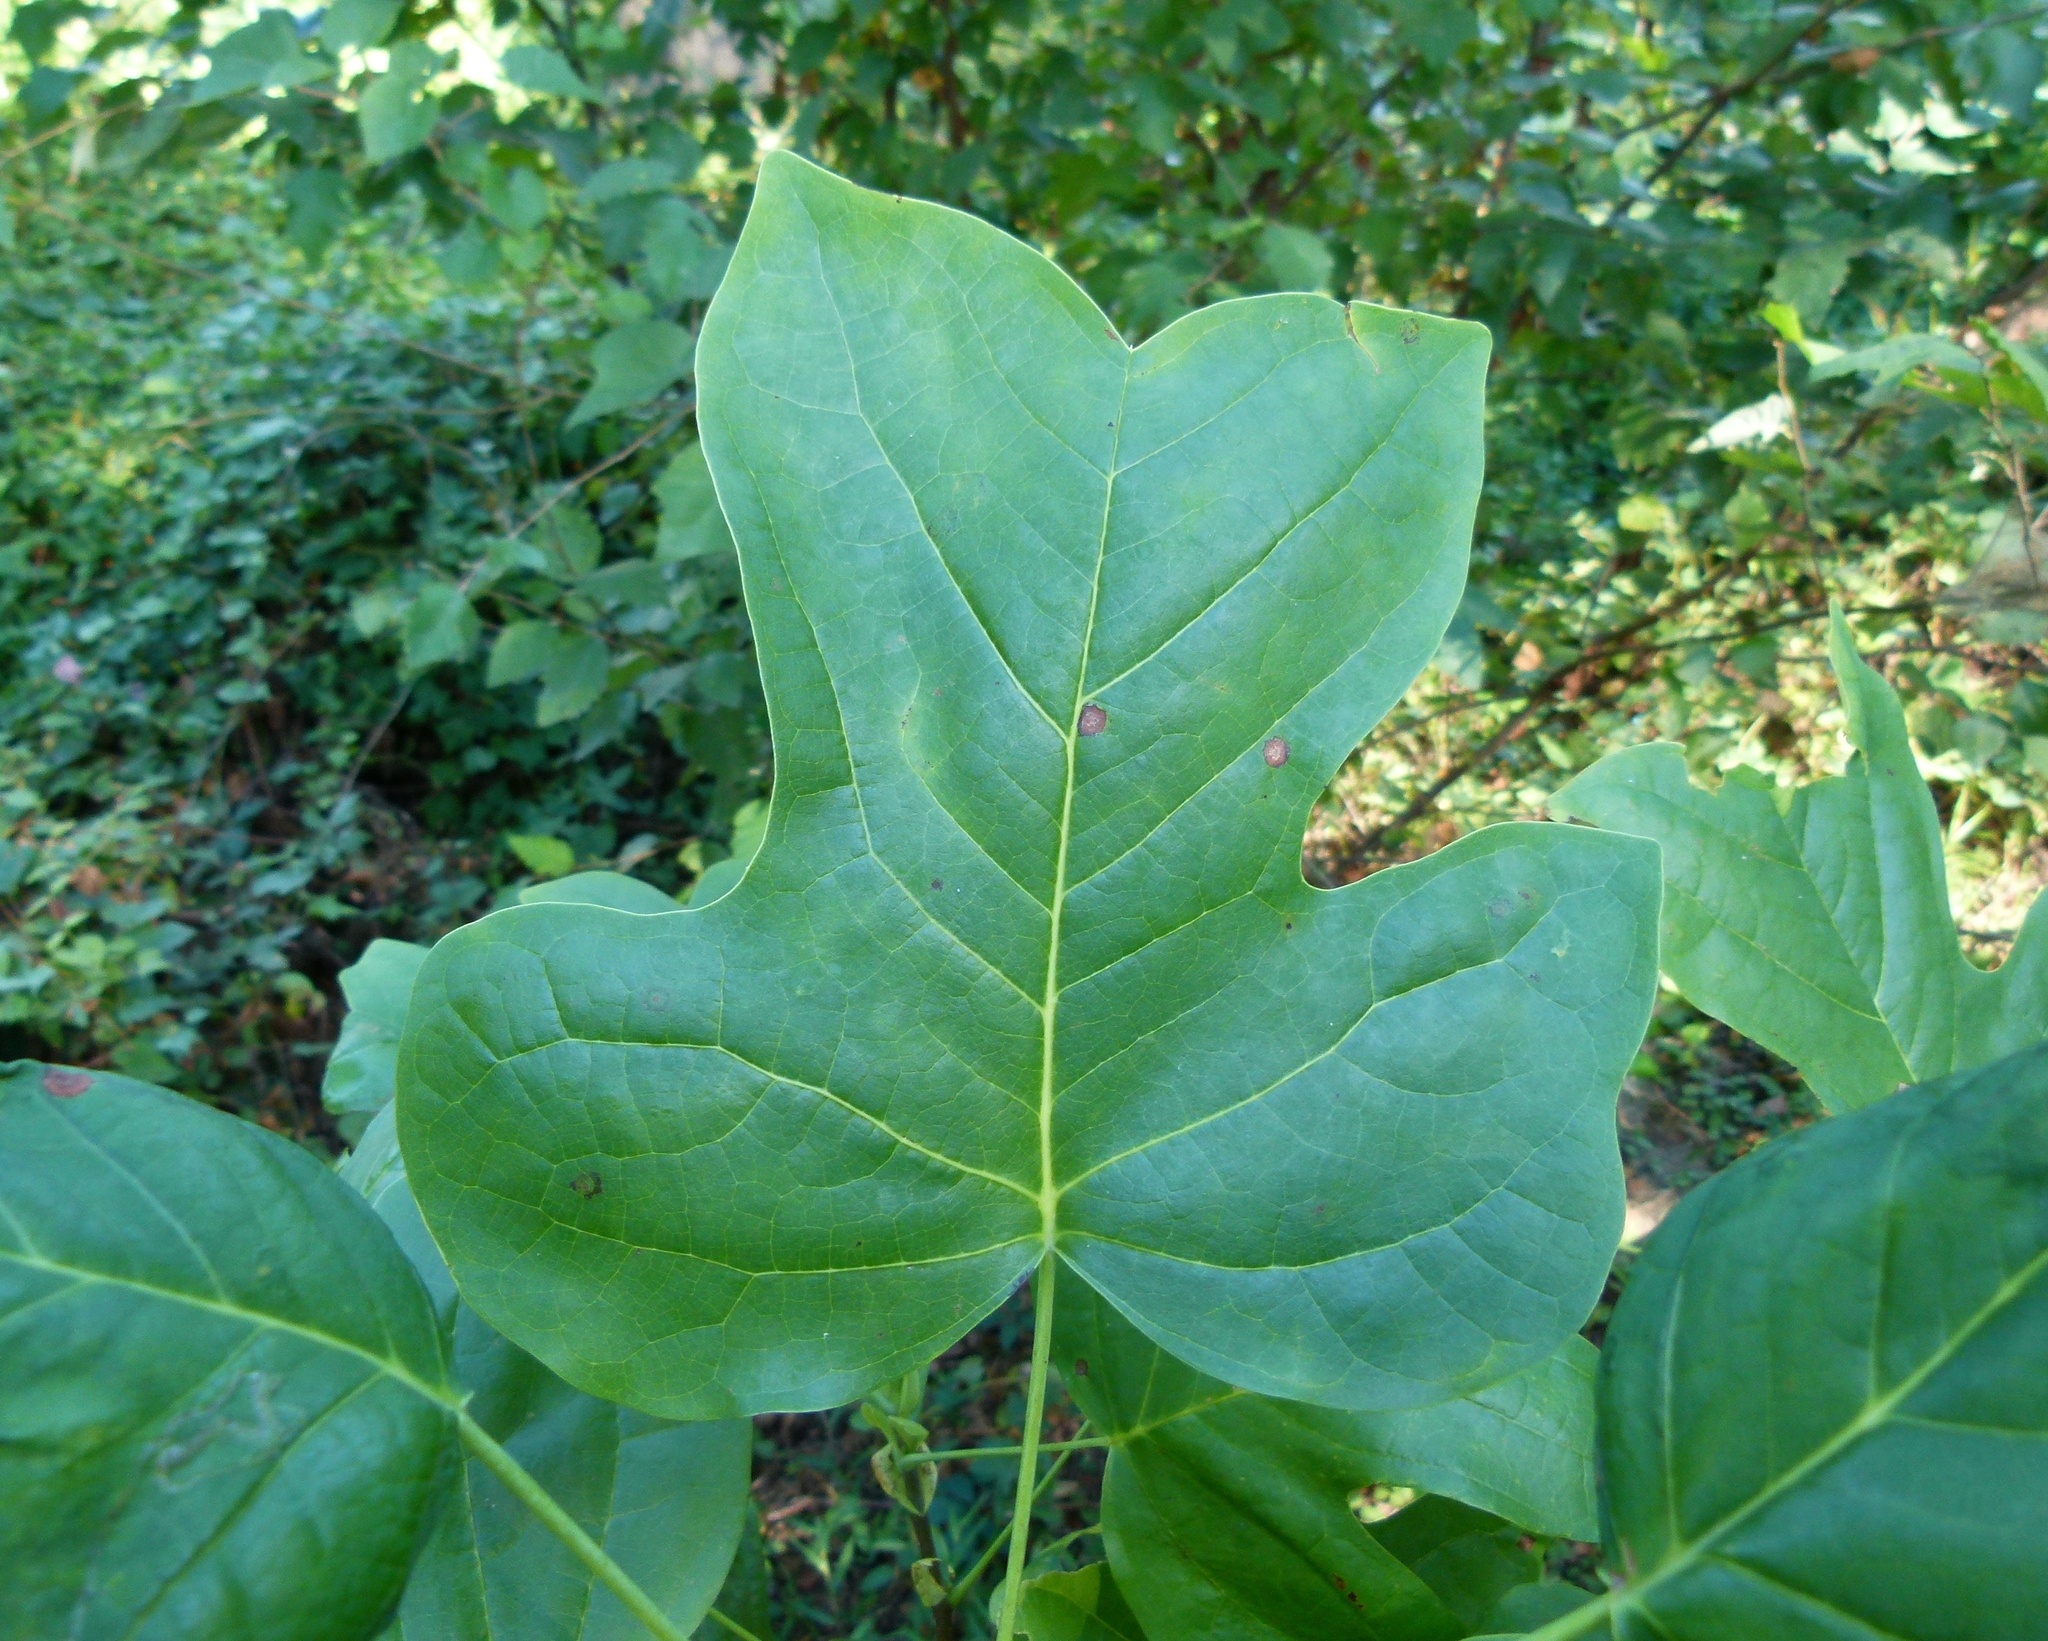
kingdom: Plantae
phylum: Tracheophyta
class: Magnoliopsida
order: Magnoliales
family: Magnoliaceae
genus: Liriodendron
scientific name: Liriodendron tulipifera
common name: Tulip tree
